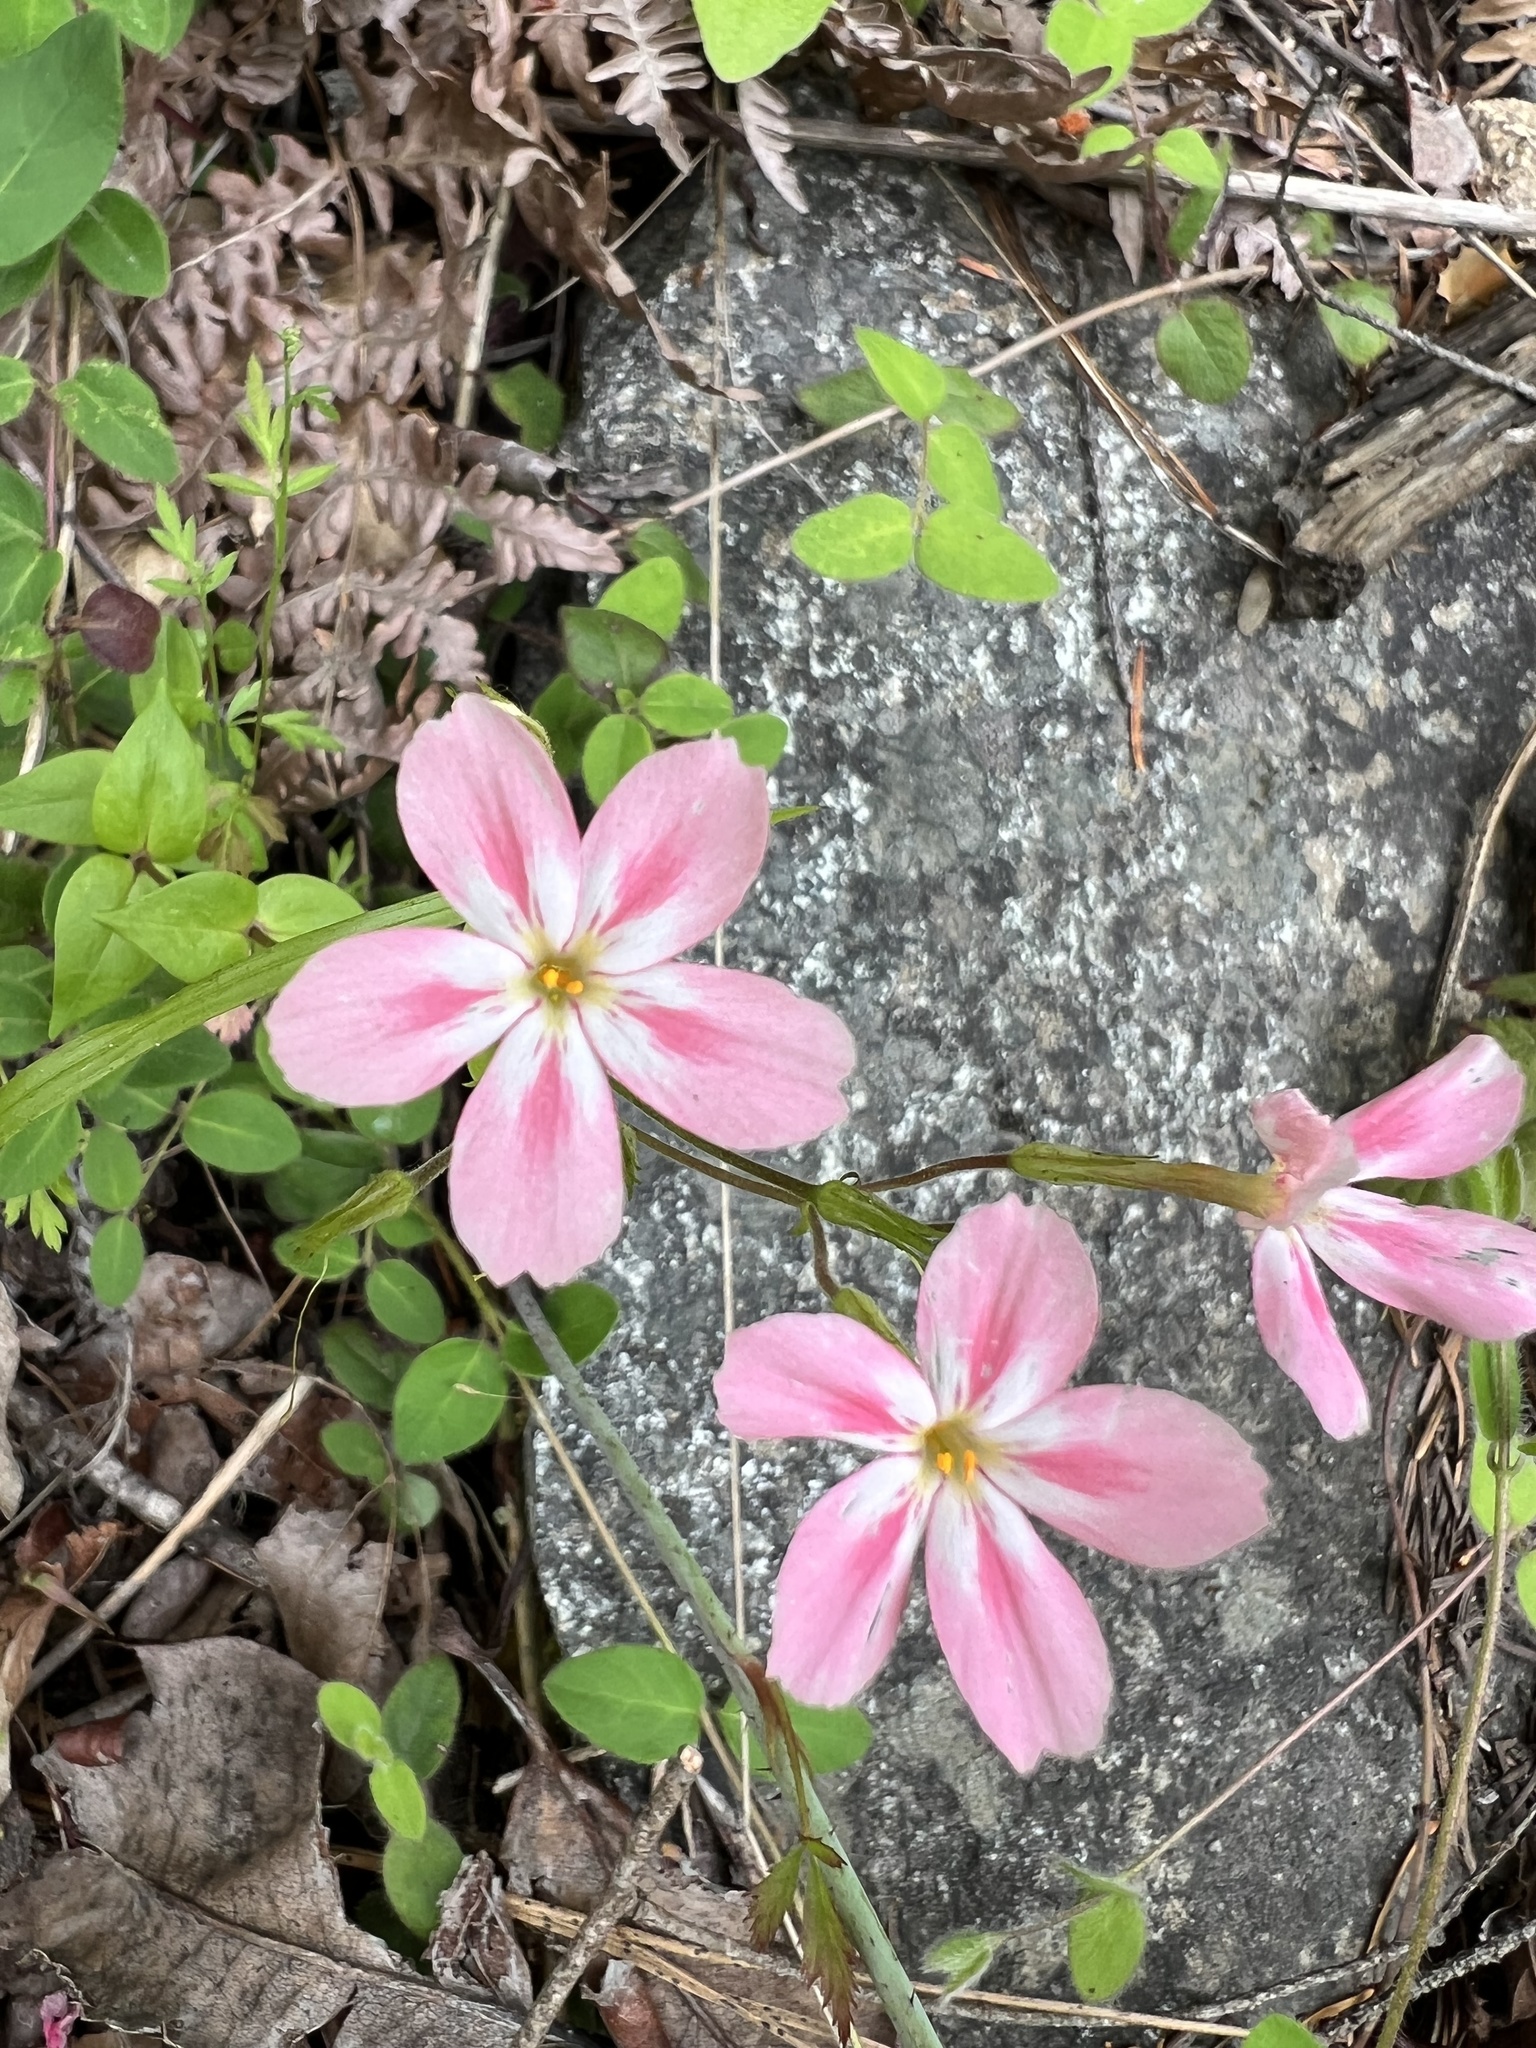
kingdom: Plantae
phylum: Tracheophyta
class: Magnoliopsida
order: Ericales
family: Polemoniaceae
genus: Phlox
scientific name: Phlox adsurgens
